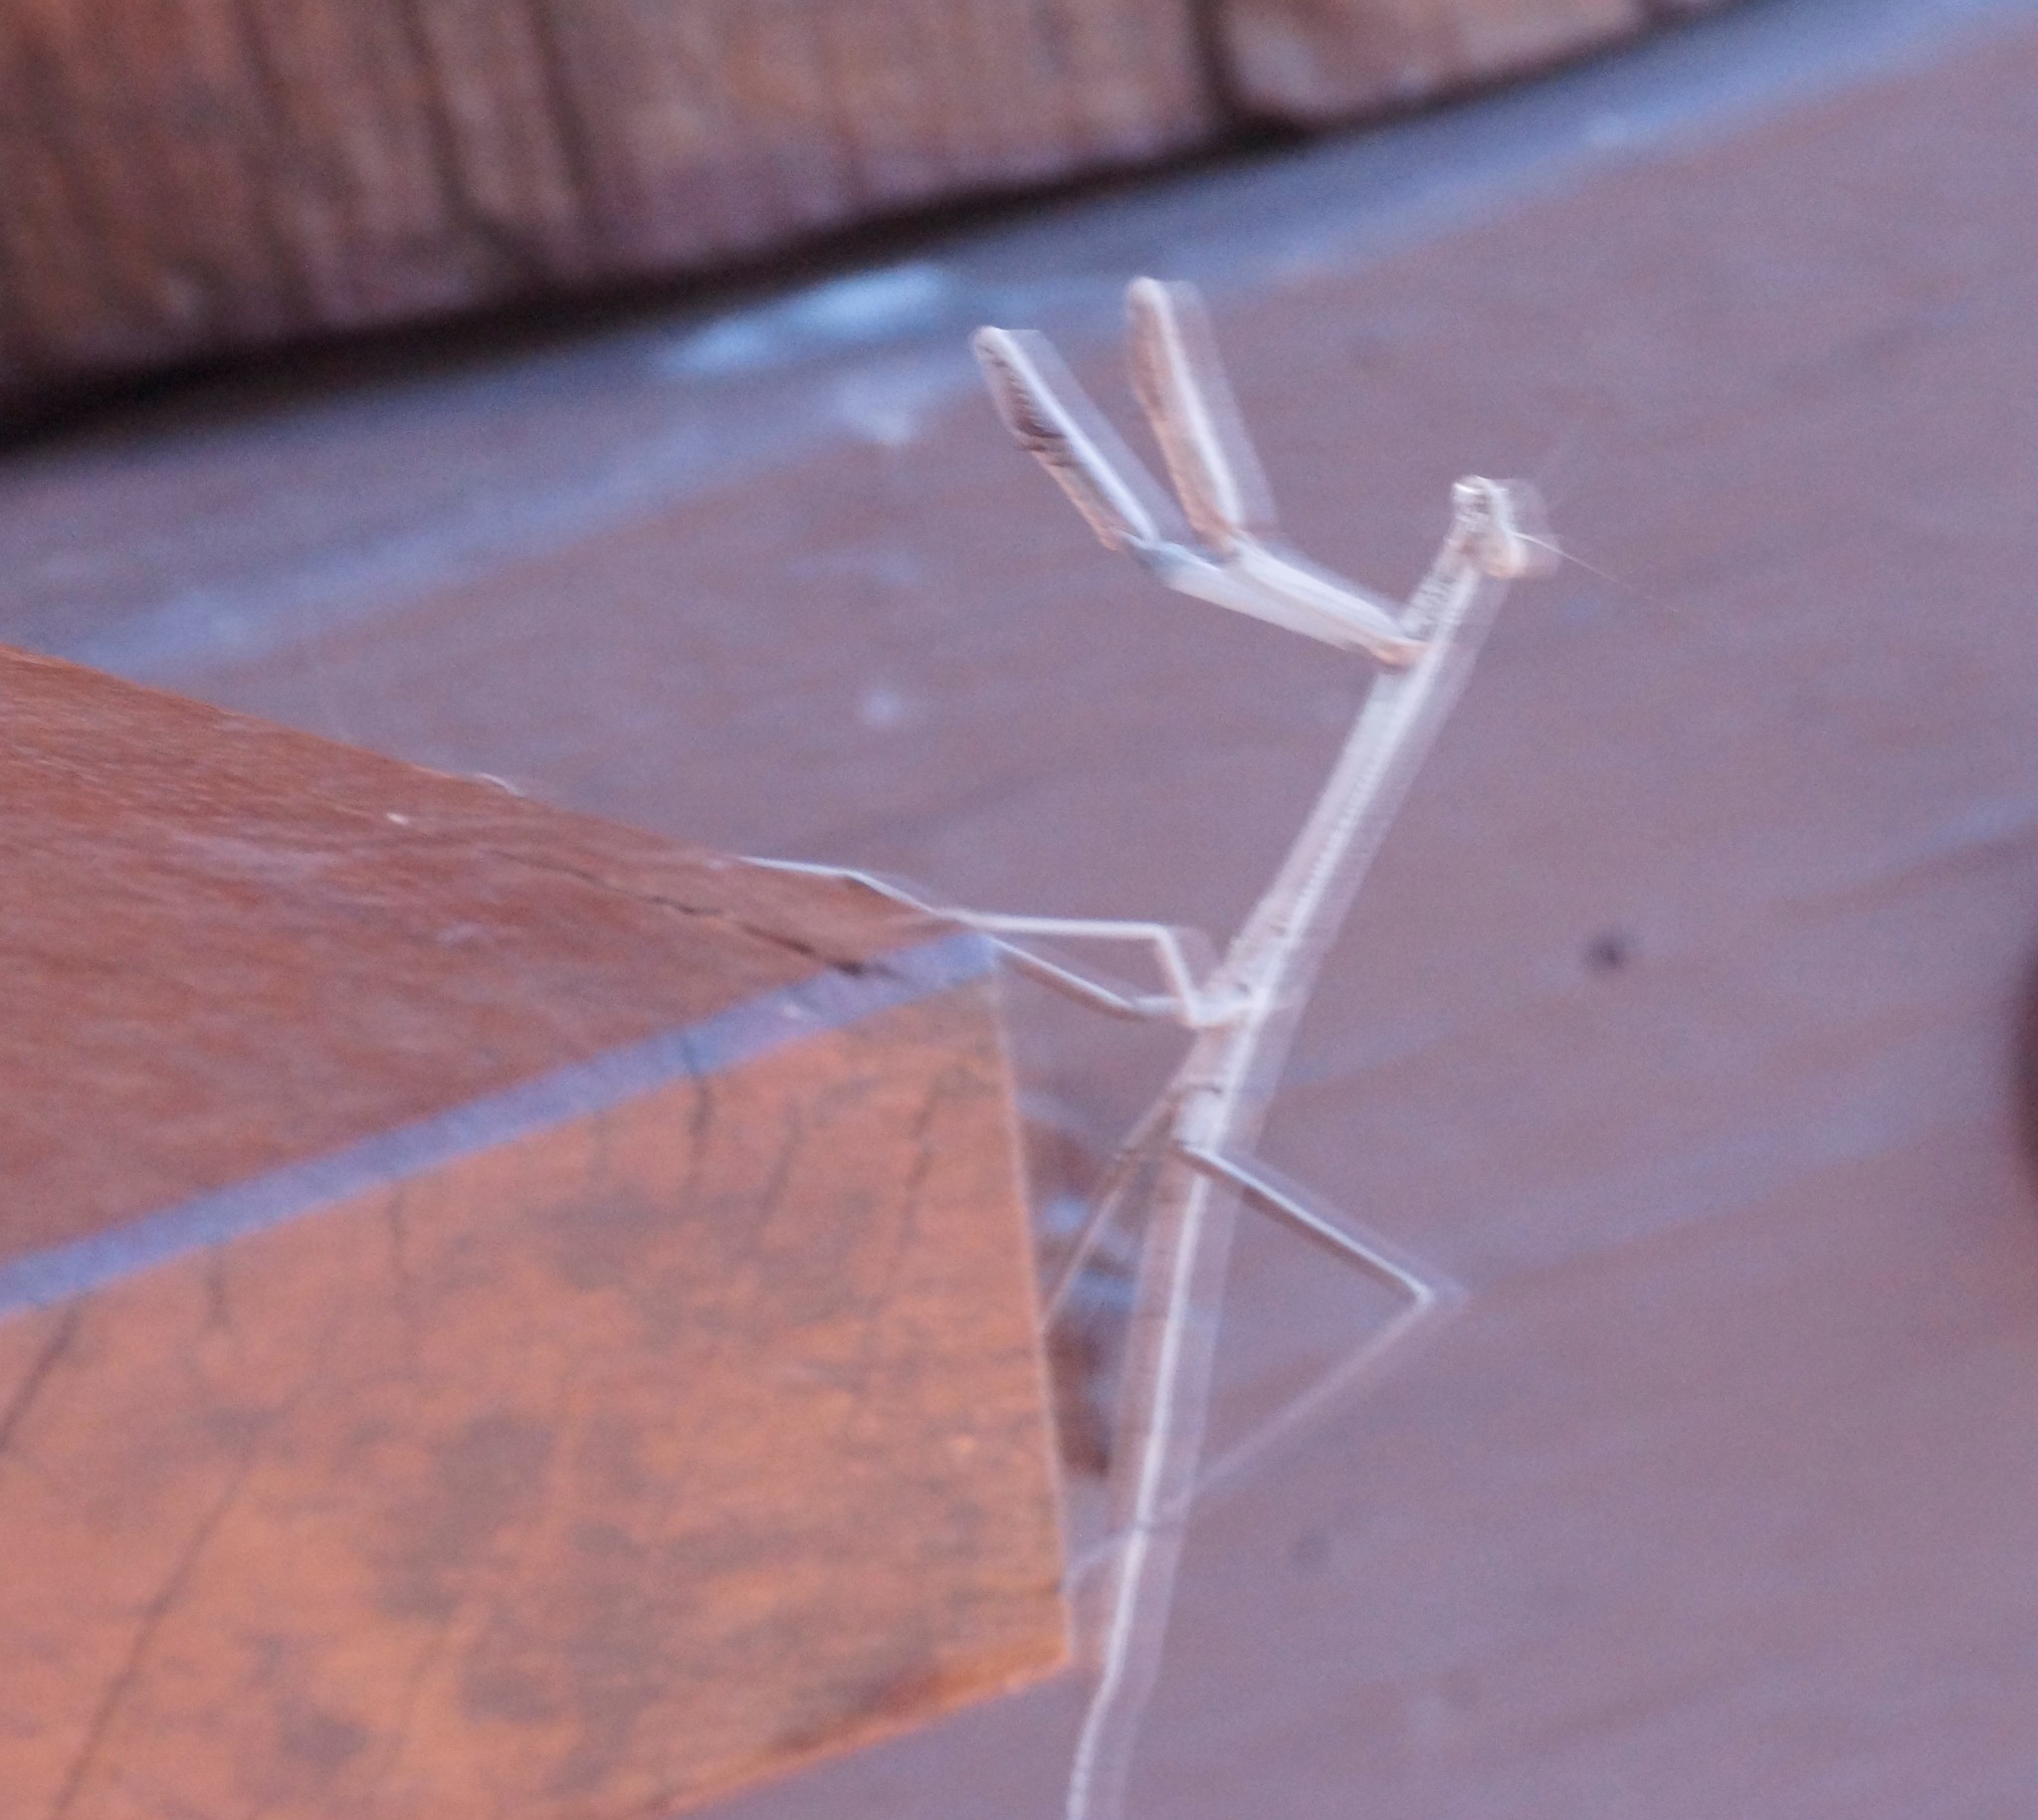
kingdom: Animalia
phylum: Arthropoda
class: Insecta
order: Mantodea
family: Mantidae
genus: Archimantis
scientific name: Archimantis monstrosa
